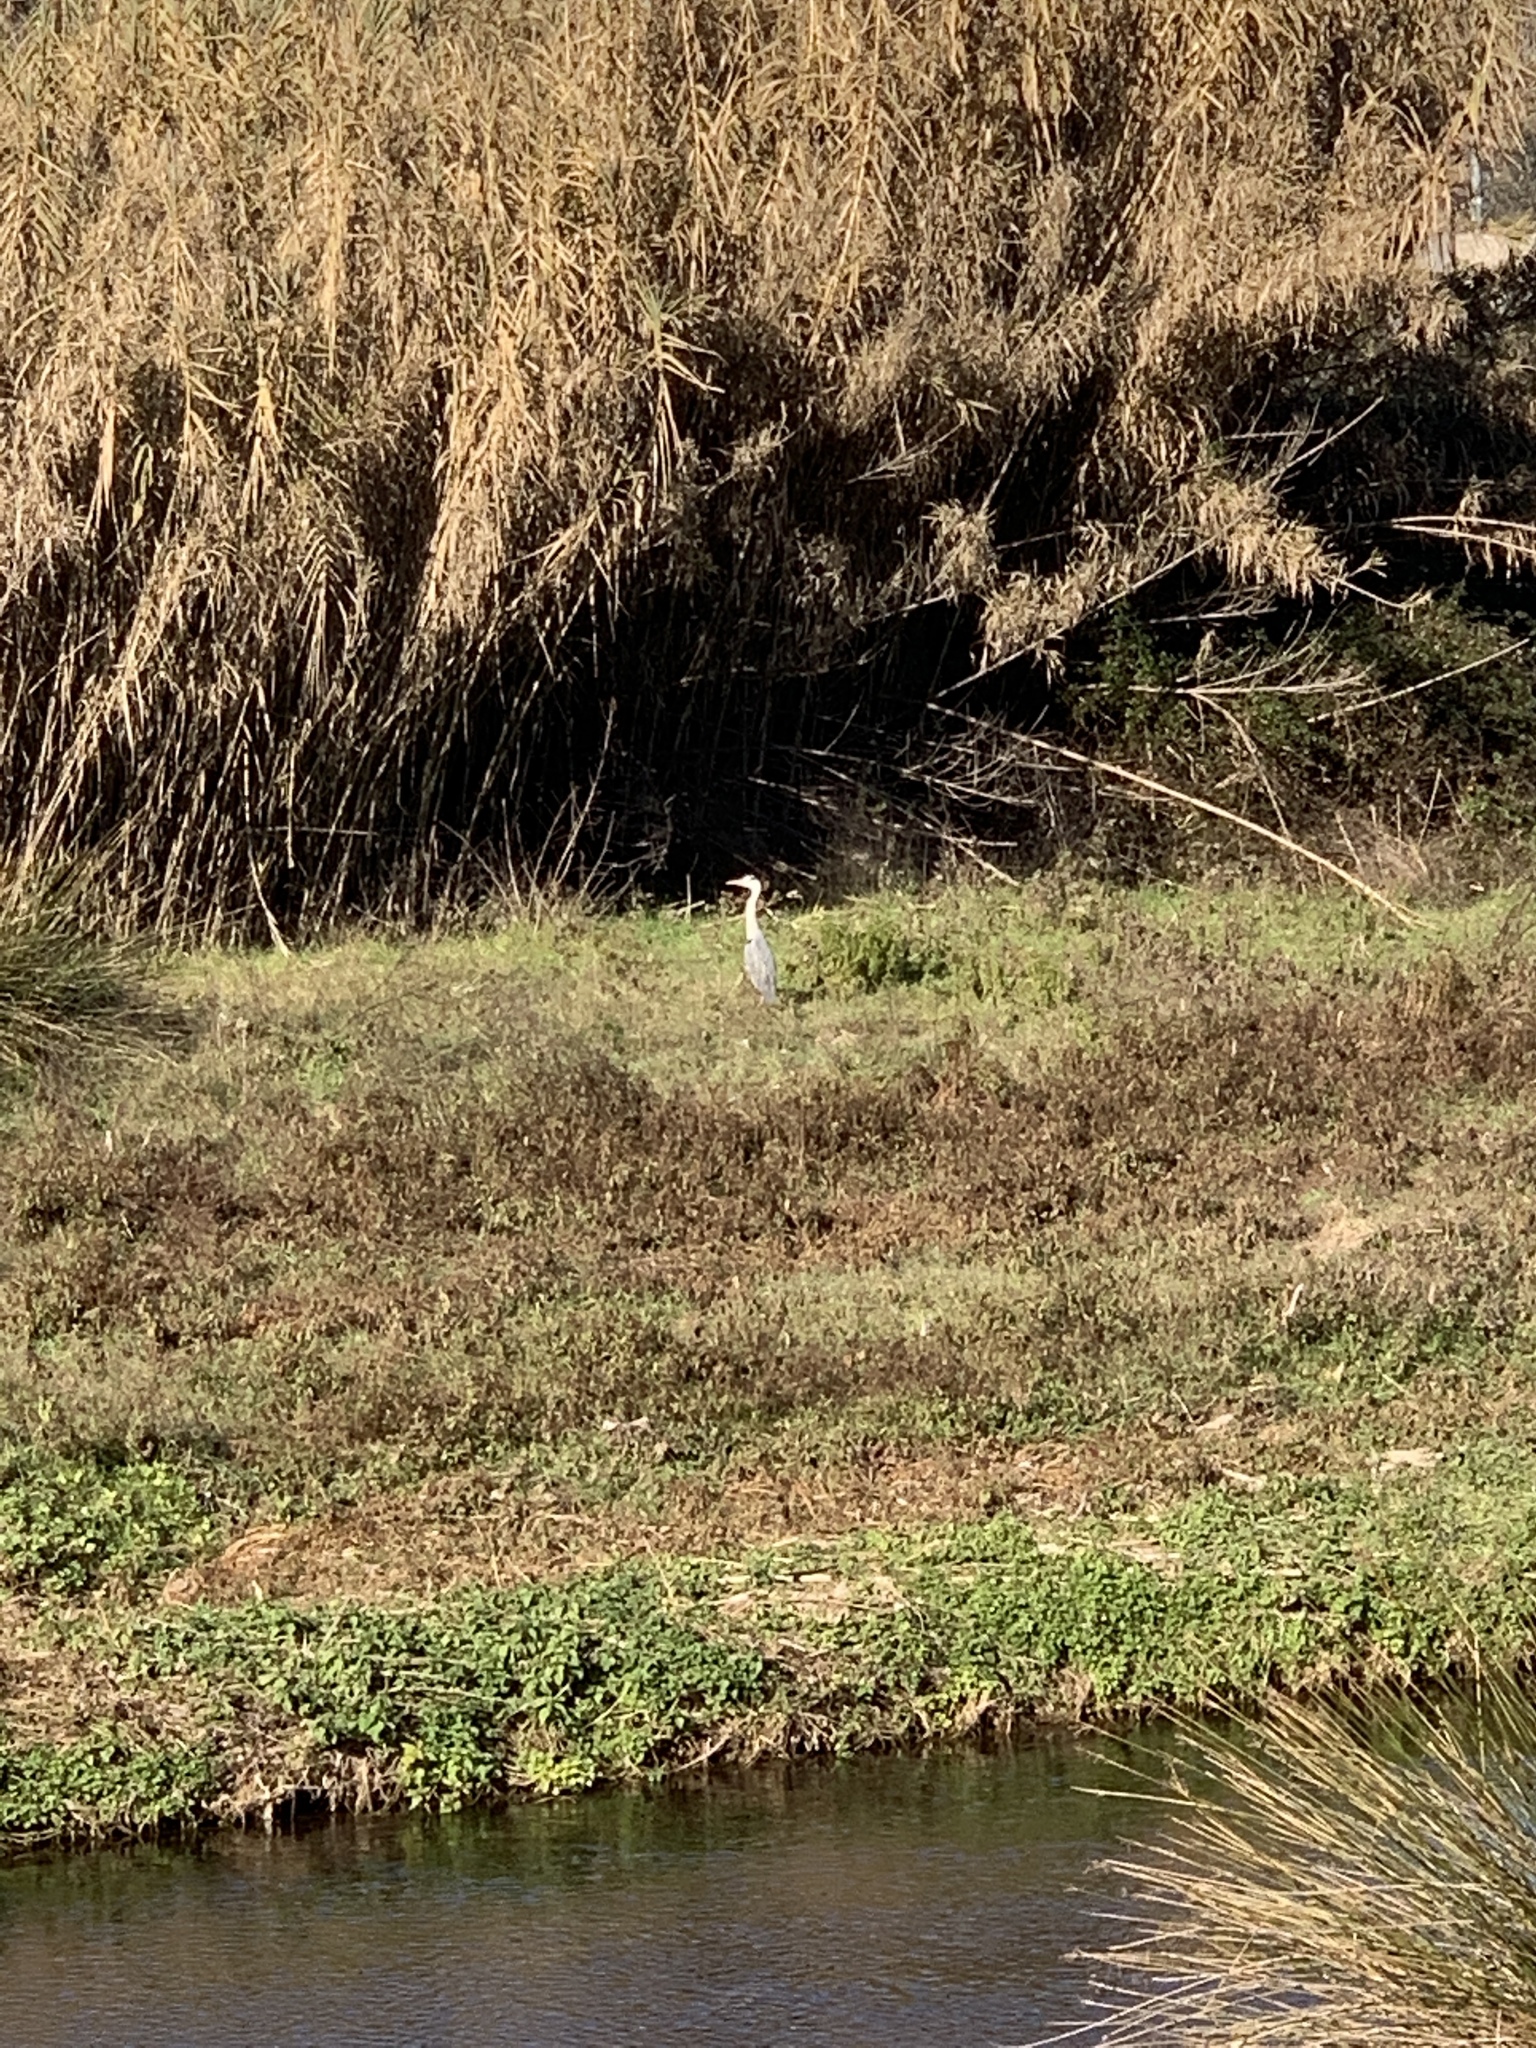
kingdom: Animalia
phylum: Chordata
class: Aves
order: Pelecaniformes
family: Ardeidae
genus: Ardea
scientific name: Ardea cinerea
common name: Grey heron
